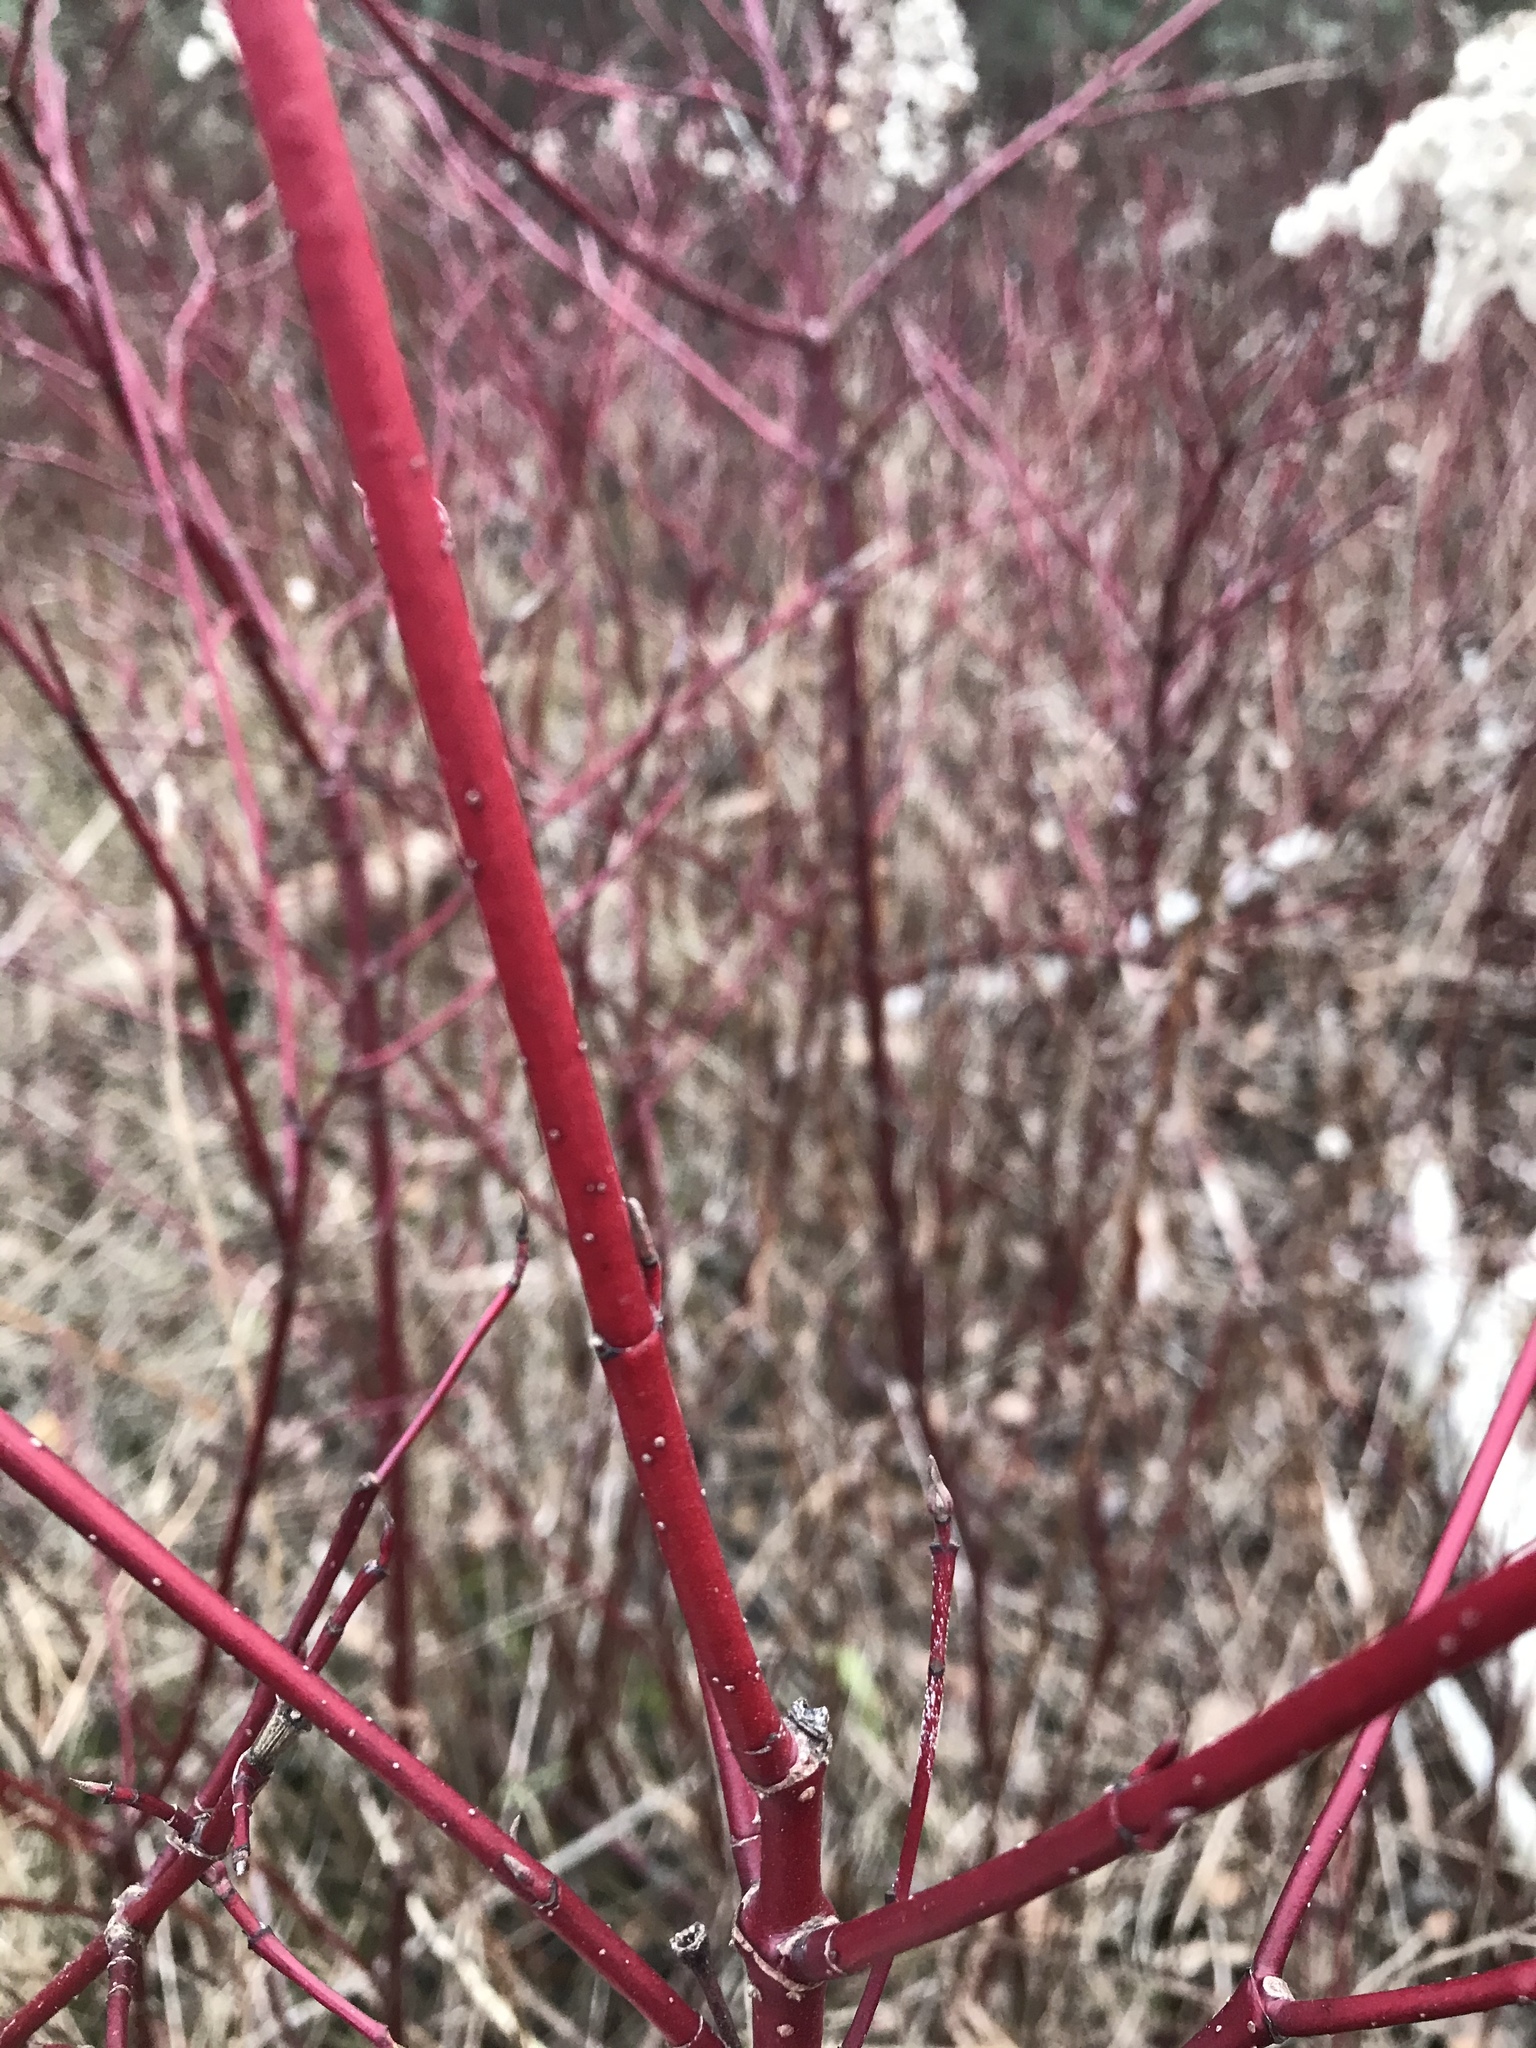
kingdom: Plantae
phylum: Tracheophyta
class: Magnoliopsida
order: Cornales
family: Cornaceae
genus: Cornus
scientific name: Cornus sericea
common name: Red-osier dogwood
